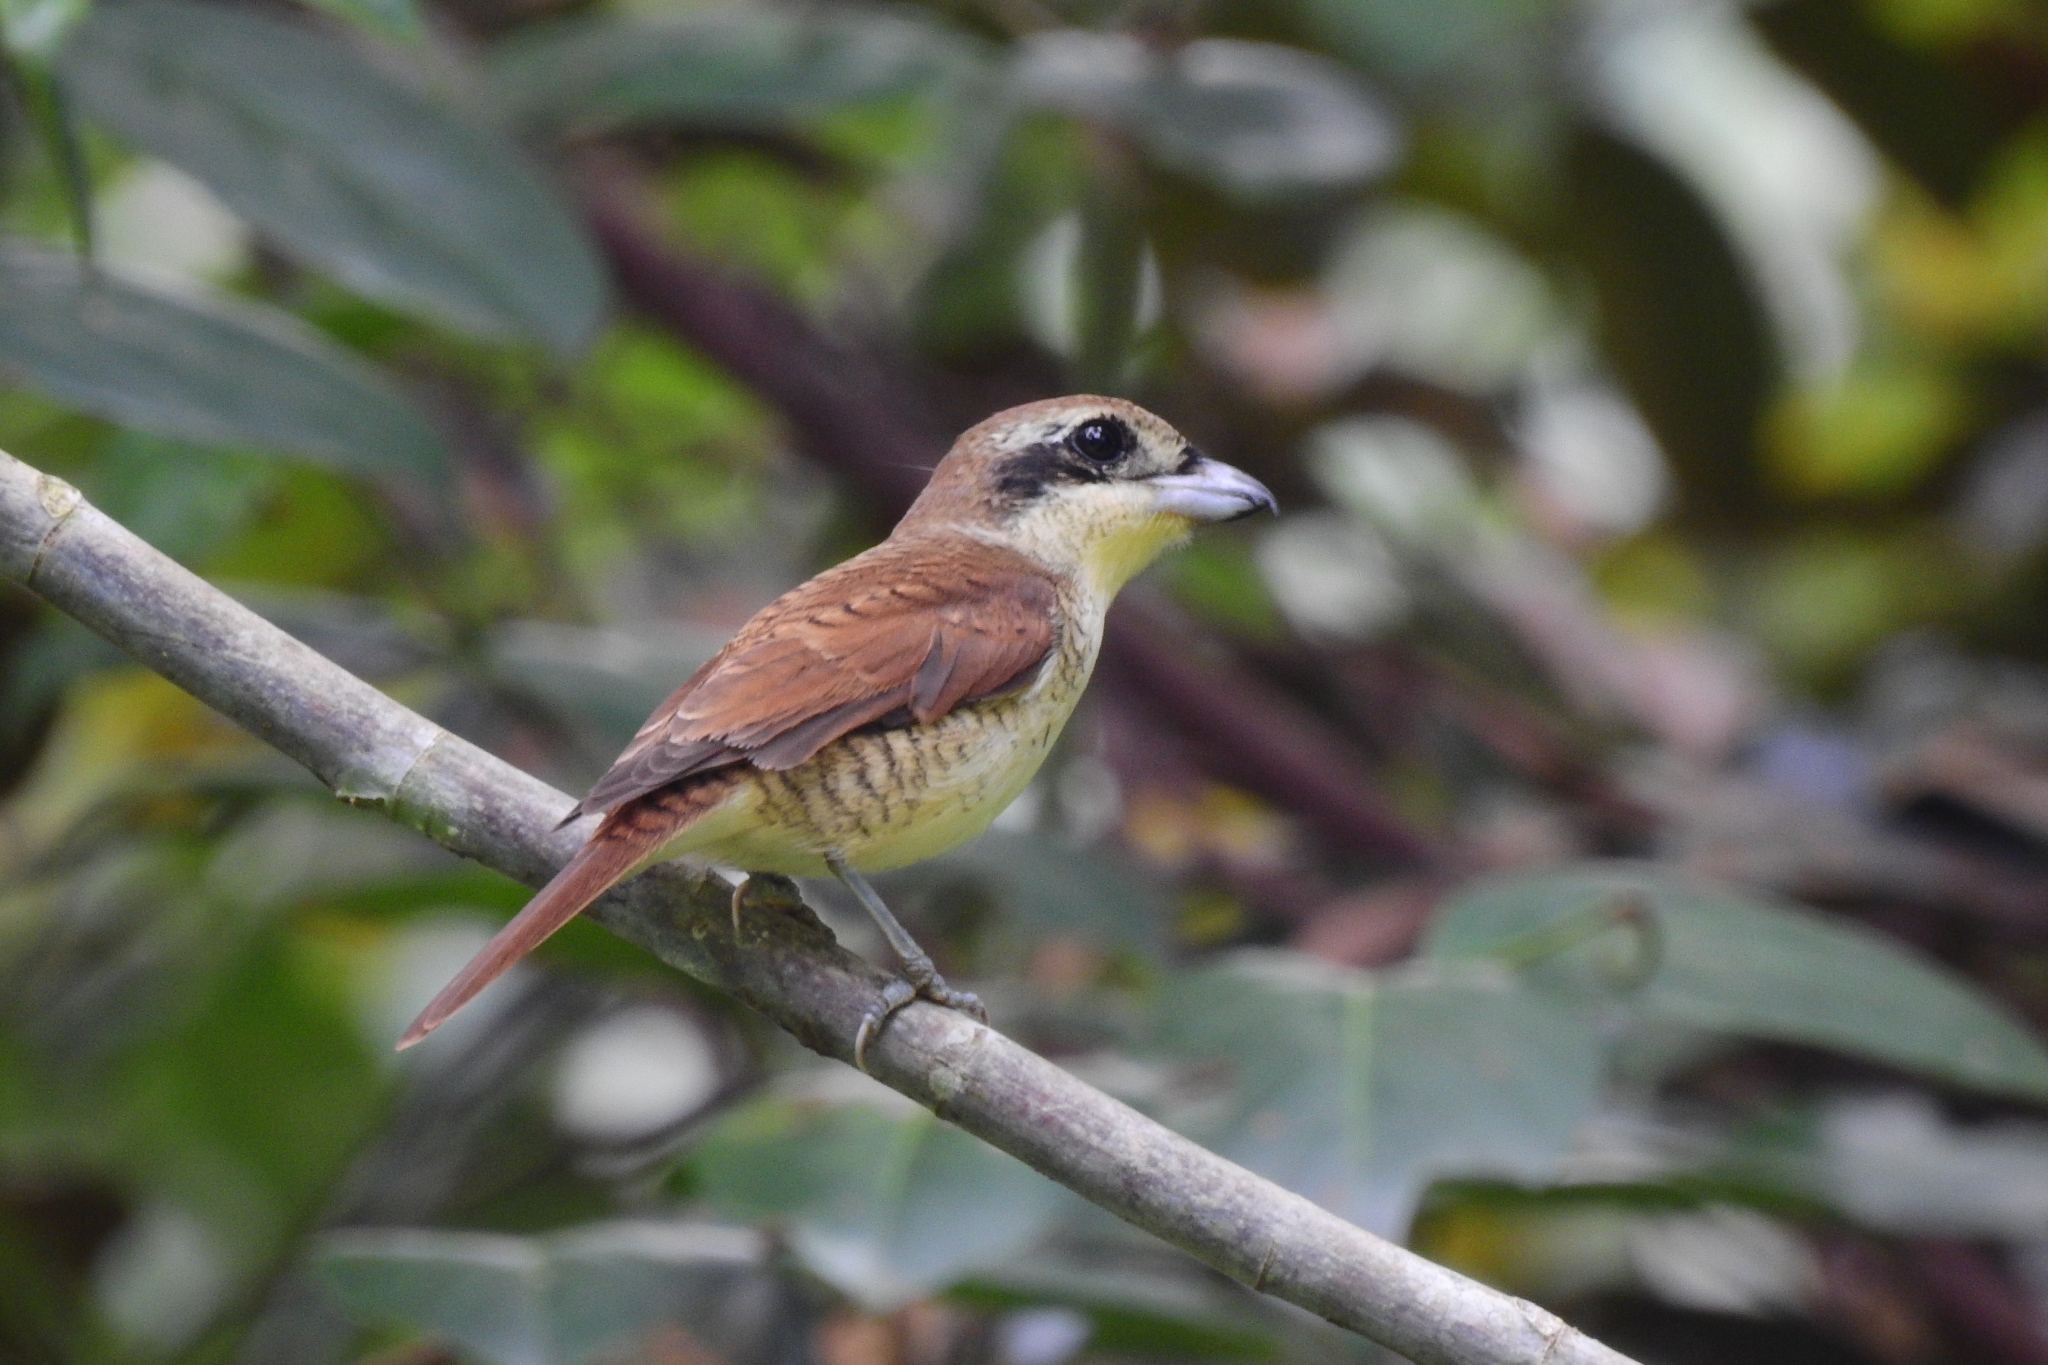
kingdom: Animalia
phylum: Chordata
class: Aves
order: Passeriformes
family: Laniidae
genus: Lanius
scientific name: Lanius tigrinus
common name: Tiger shrike
